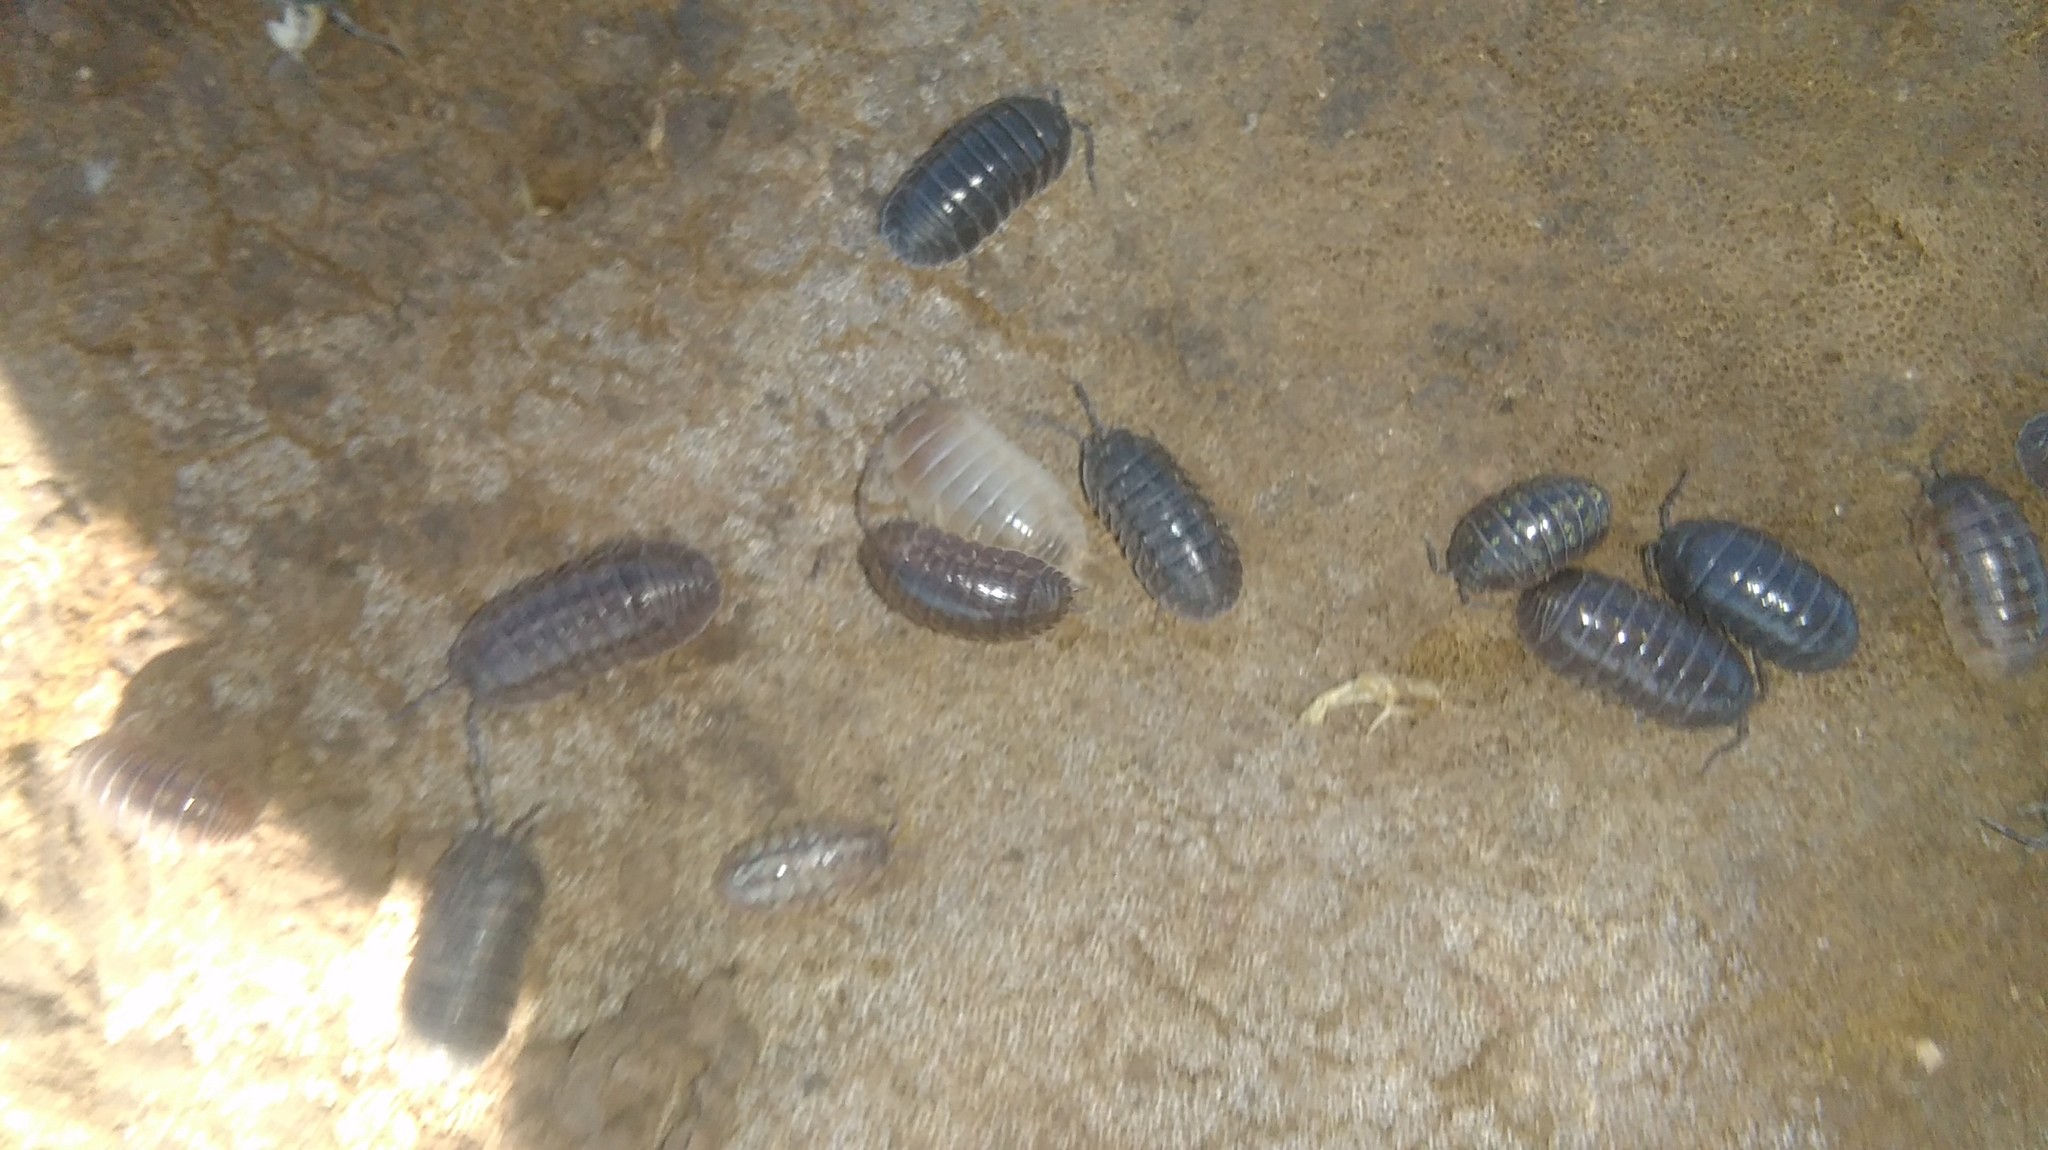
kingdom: Animalia
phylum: Arthropoda
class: Malacostraca
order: Isopoda
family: Armadillidiidae
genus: Armadillidium
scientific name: Armadillidium vulgare
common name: Common pill woodlouse
